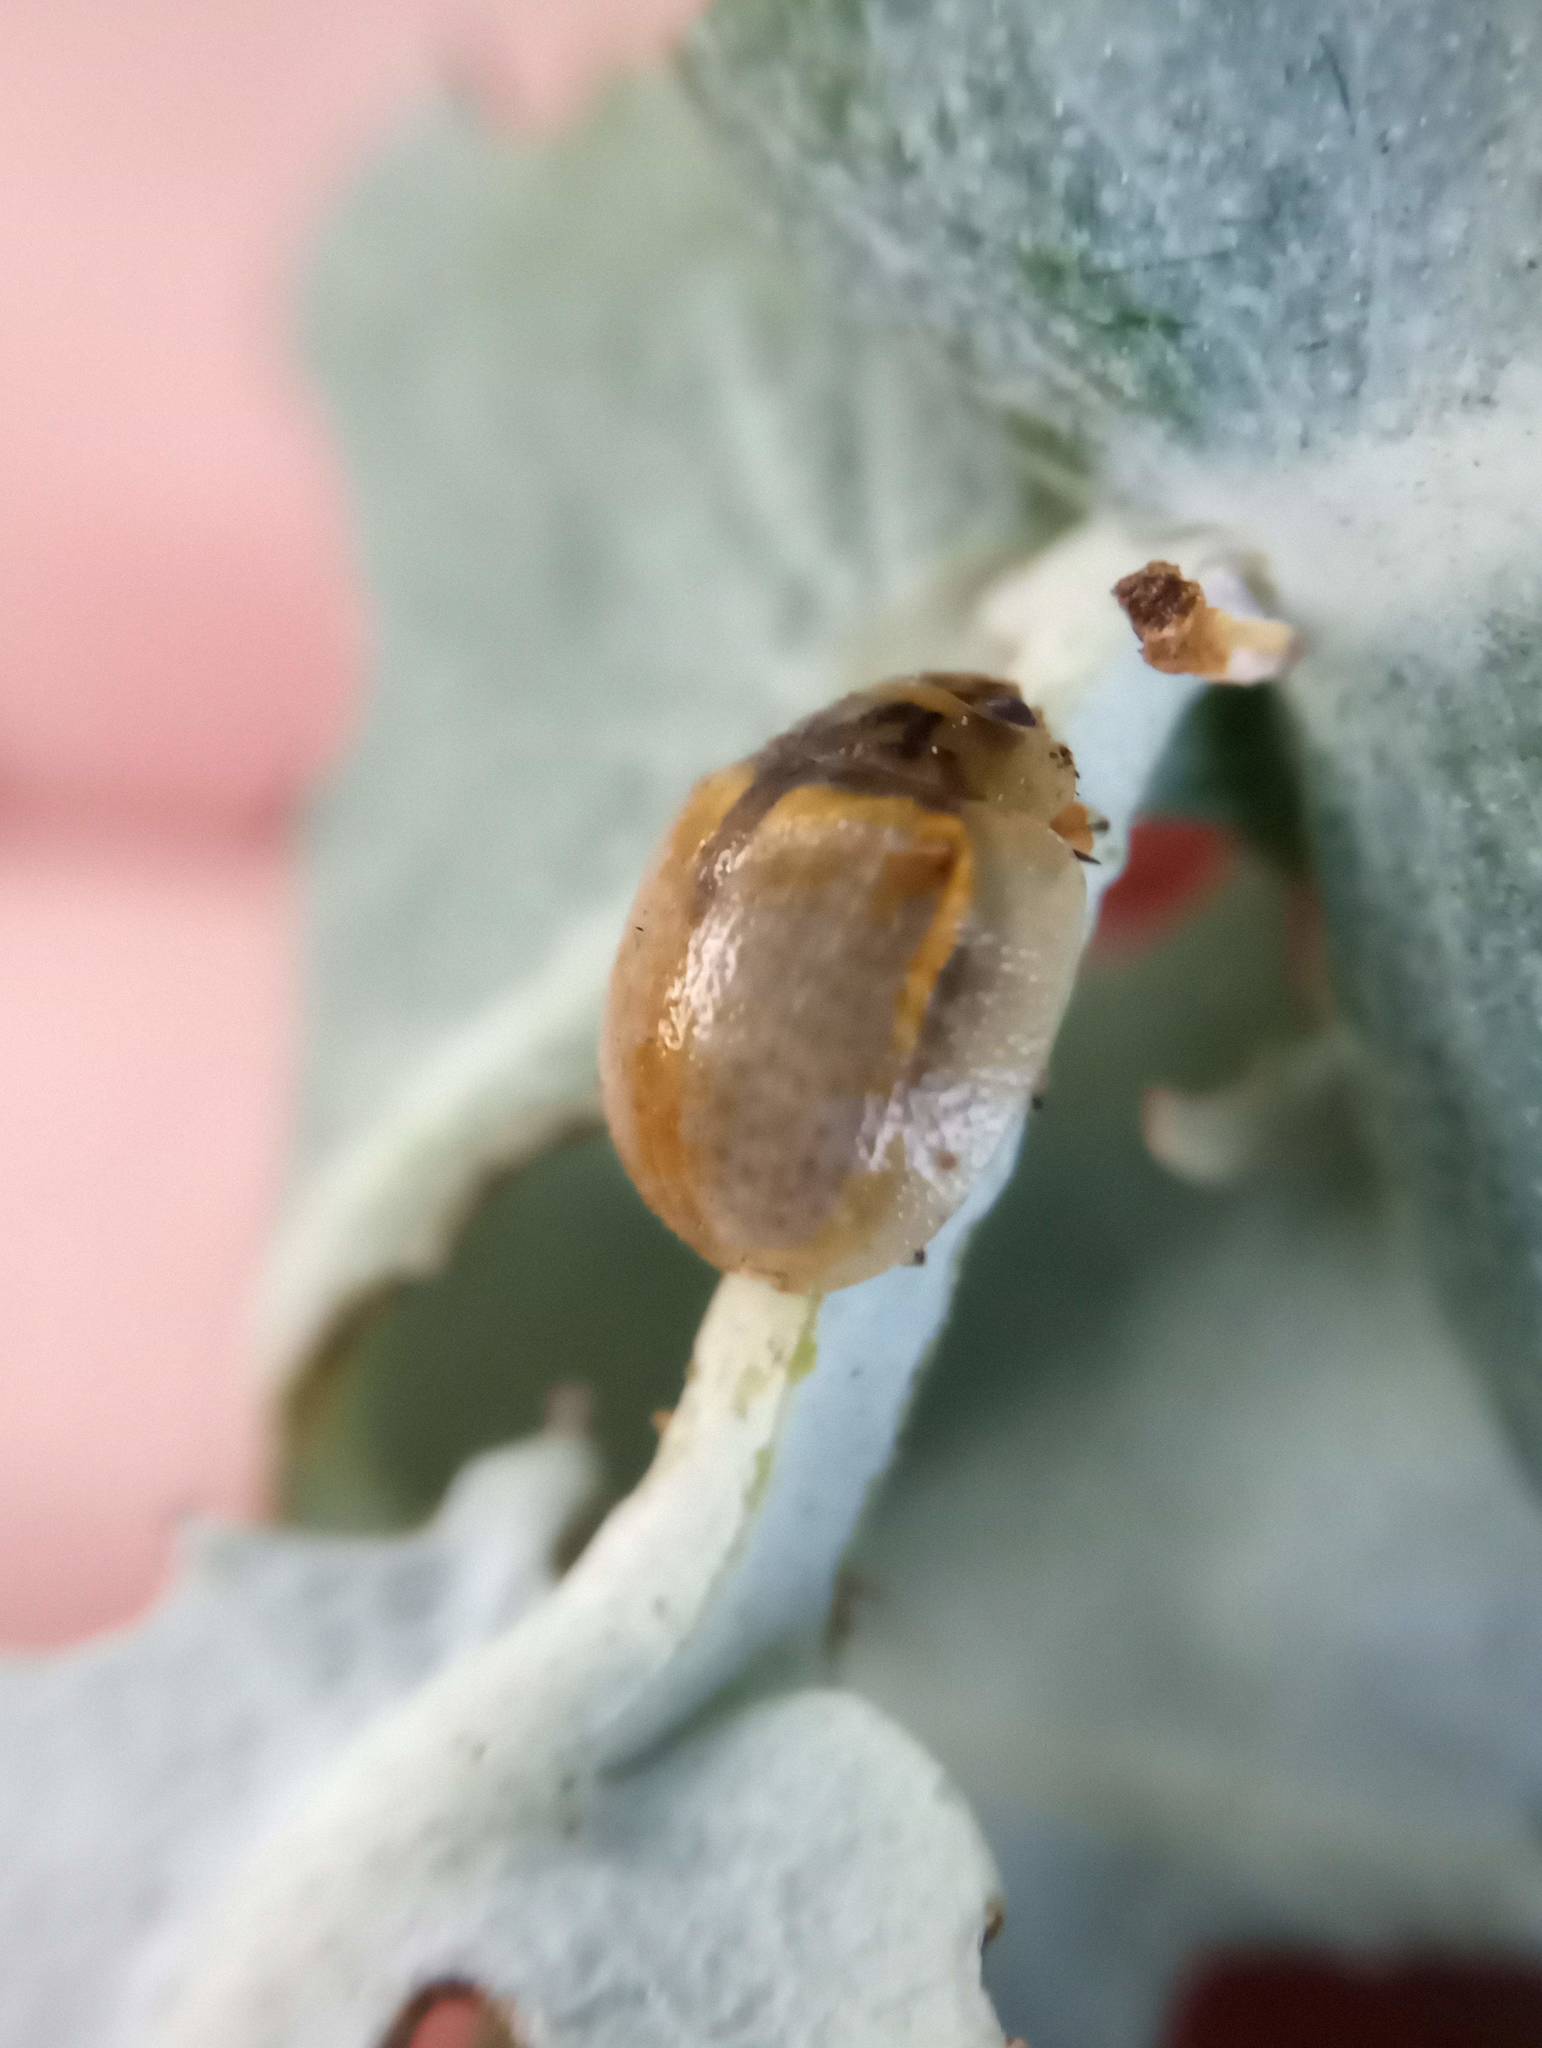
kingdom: Animalia
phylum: Arthropoda
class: Insecta
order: Coleoptera
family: Chrysomelidae
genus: Paropsisterna
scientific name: Paropsisterna m-fuscum
